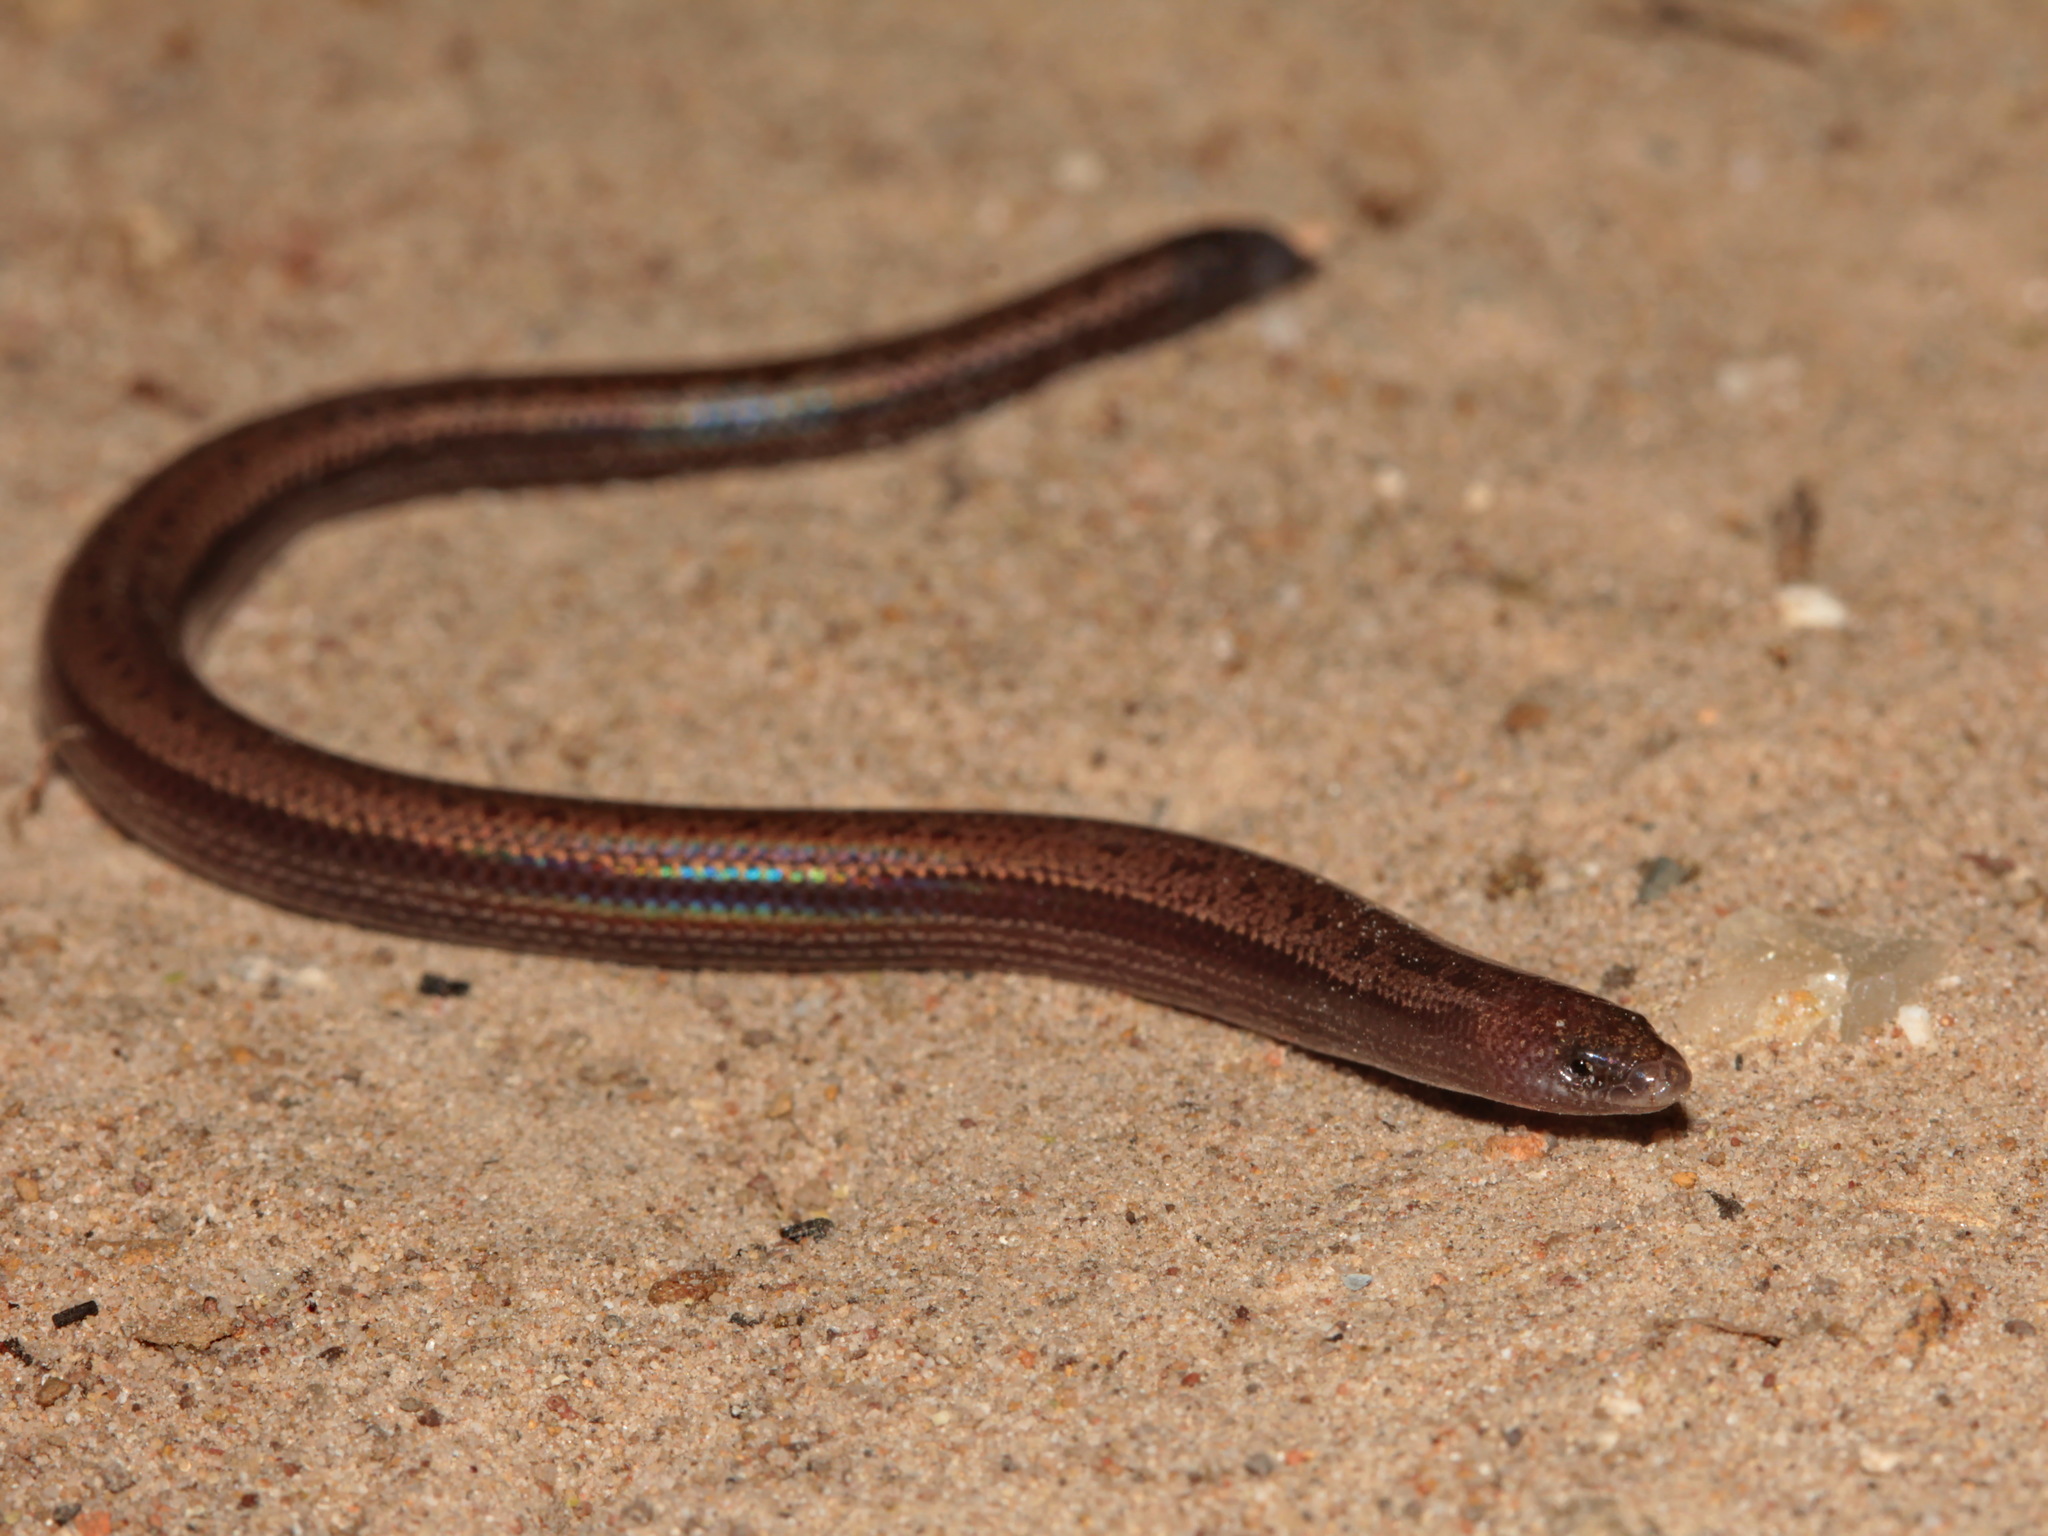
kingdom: Animalia
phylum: Chordata
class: Squamata
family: Scincidae
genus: Isopachys
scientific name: Isopachys anguinoides
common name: Heyer's isopachys
